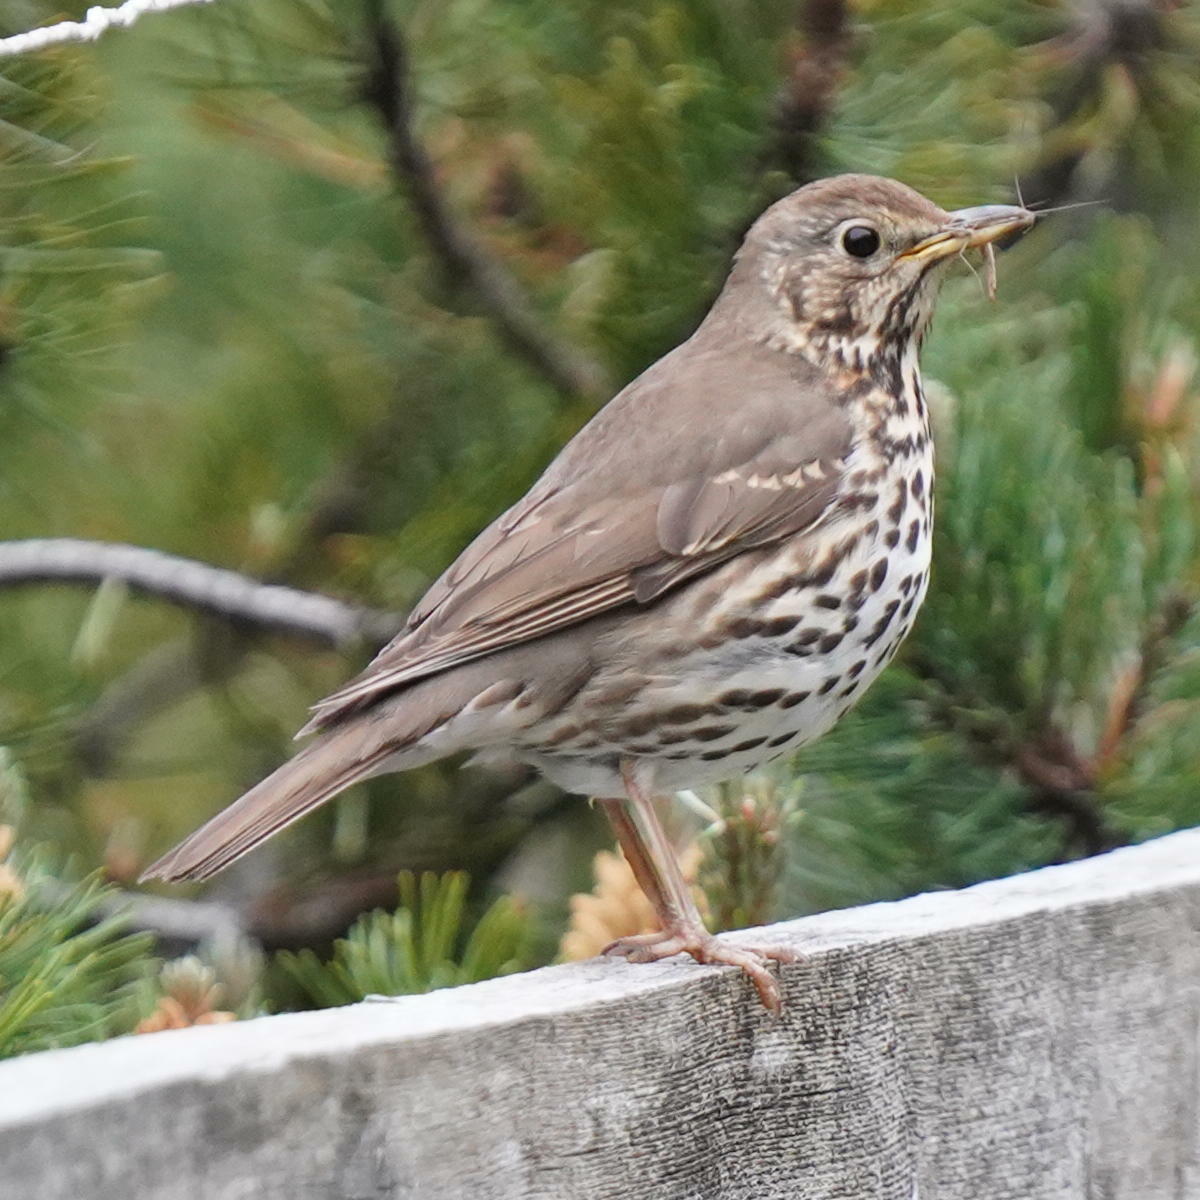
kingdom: Animalia
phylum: Chordata
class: Aves
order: Passeriformes
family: Turdidae
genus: Turdus
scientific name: Turdus philomelos
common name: Song thrush
